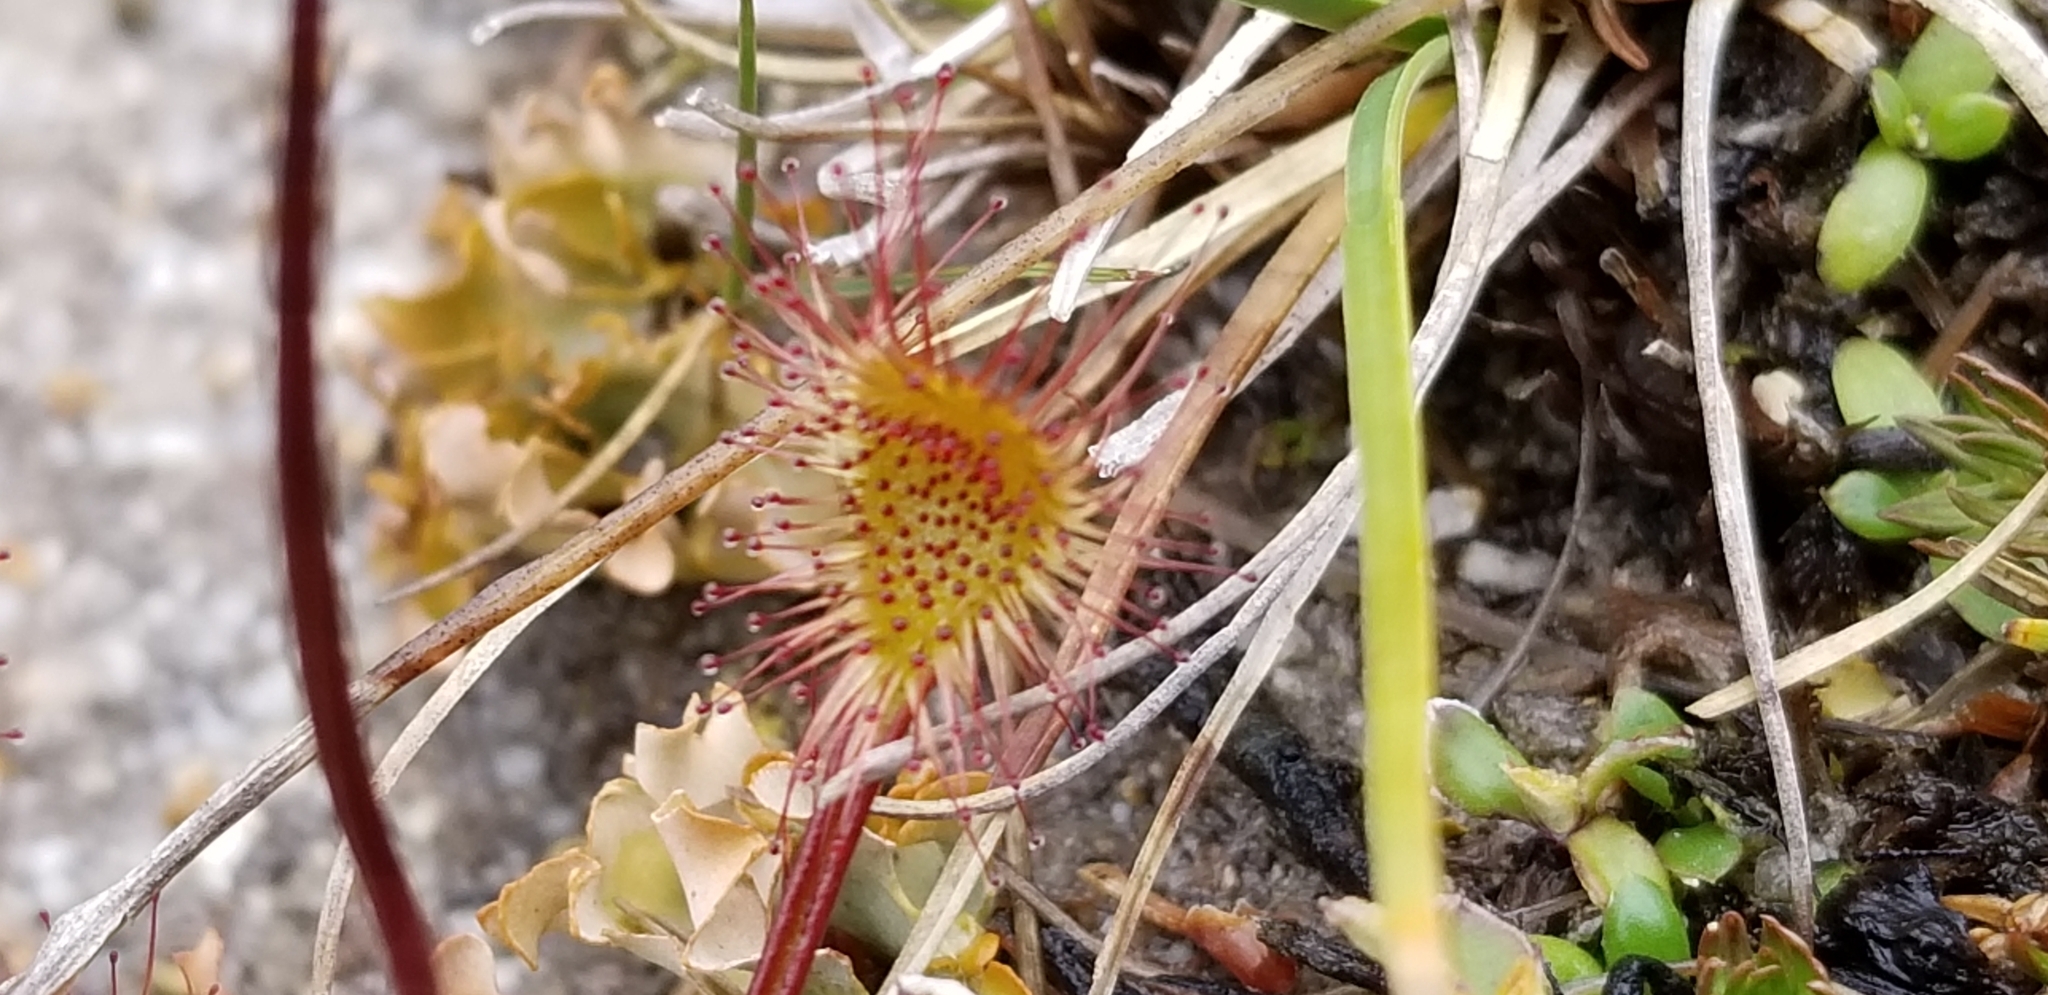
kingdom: Plantae
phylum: Tracheophyta
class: Magnoliopsida
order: Caryophyllales
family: Droseraceae
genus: Drosera
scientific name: Drosera spatulata
